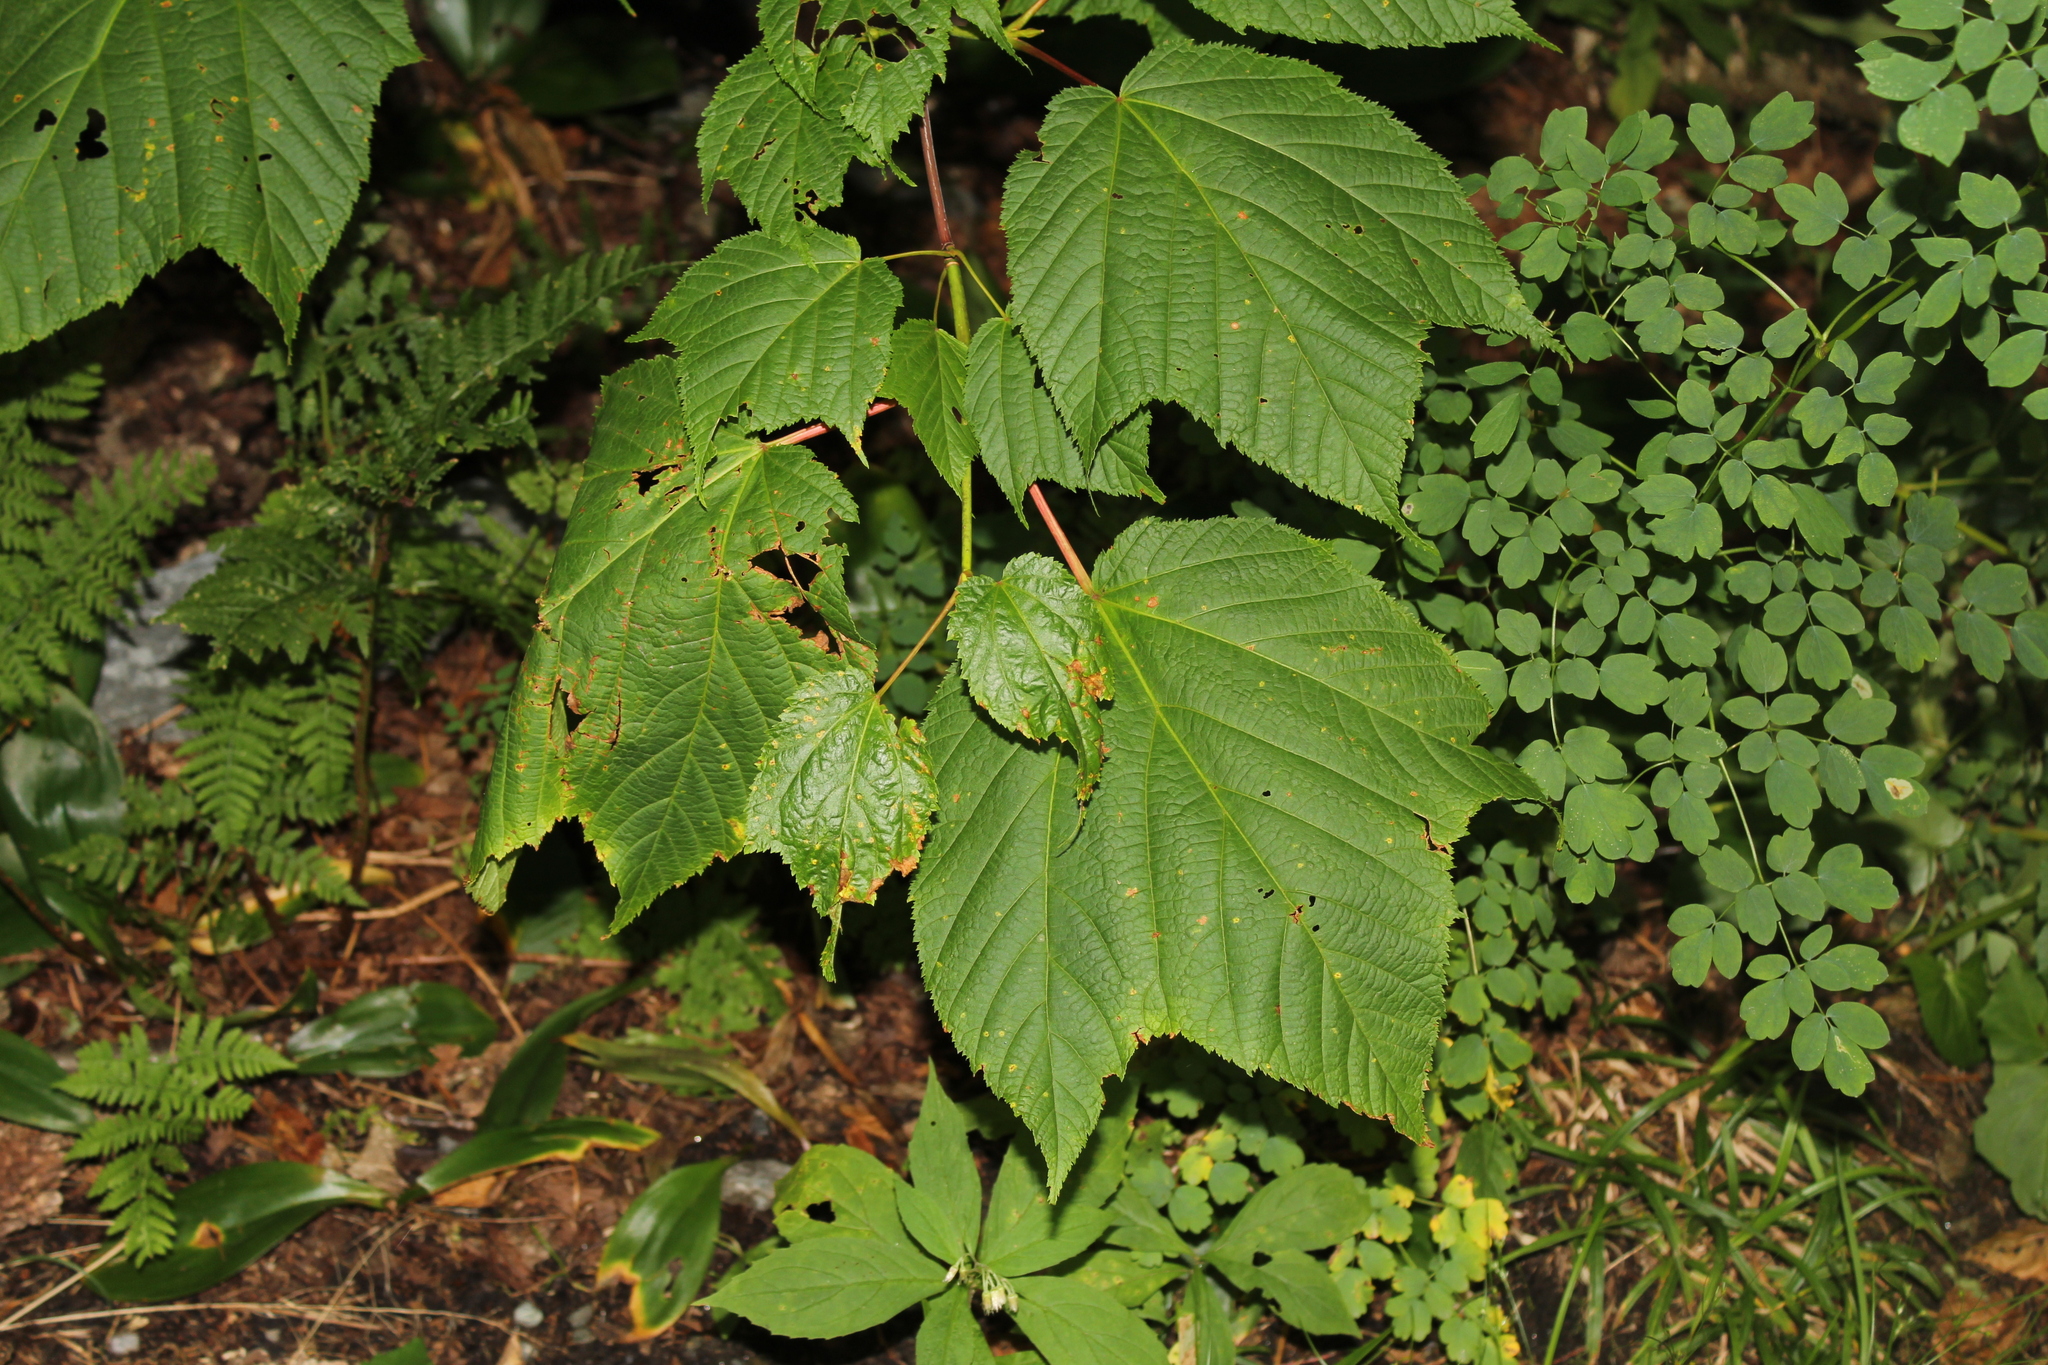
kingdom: Plantae
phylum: Tracheophyta
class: Magnoliopsida
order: Sapindales
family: Sapindaceae
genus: Acer
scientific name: Acer pensylvanicum
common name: Moosewood
